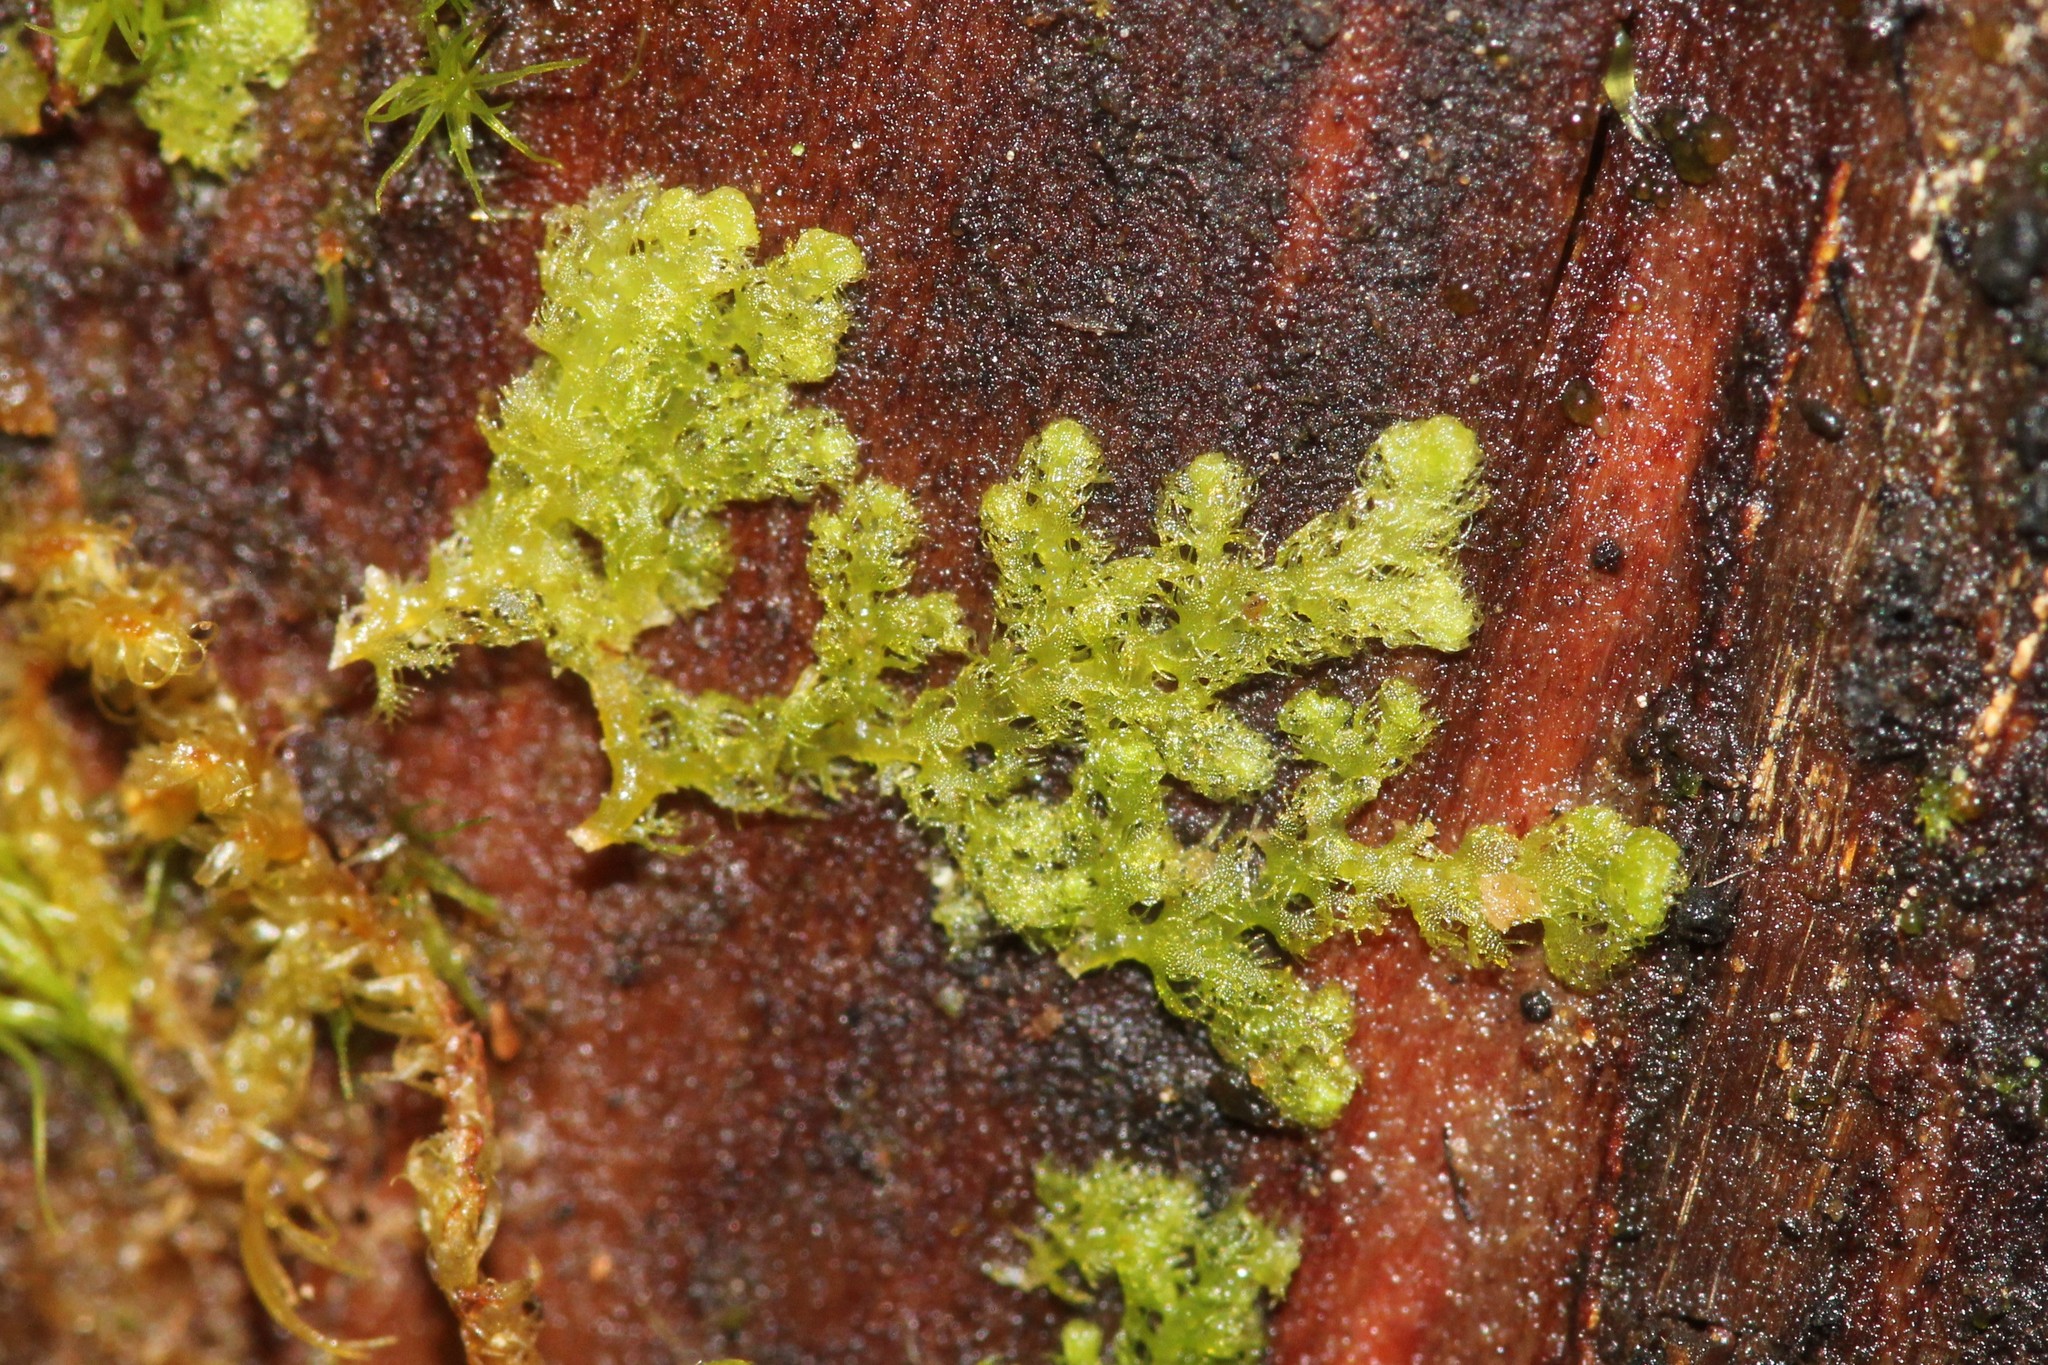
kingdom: Plantae
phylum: Marchantiophyta
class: Jungermanniopsida
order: Ptilidiales
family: Ptilidiaceae
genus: Ptilidium
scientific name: Ptilidium pulcherrimum
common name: Tree fringewort
